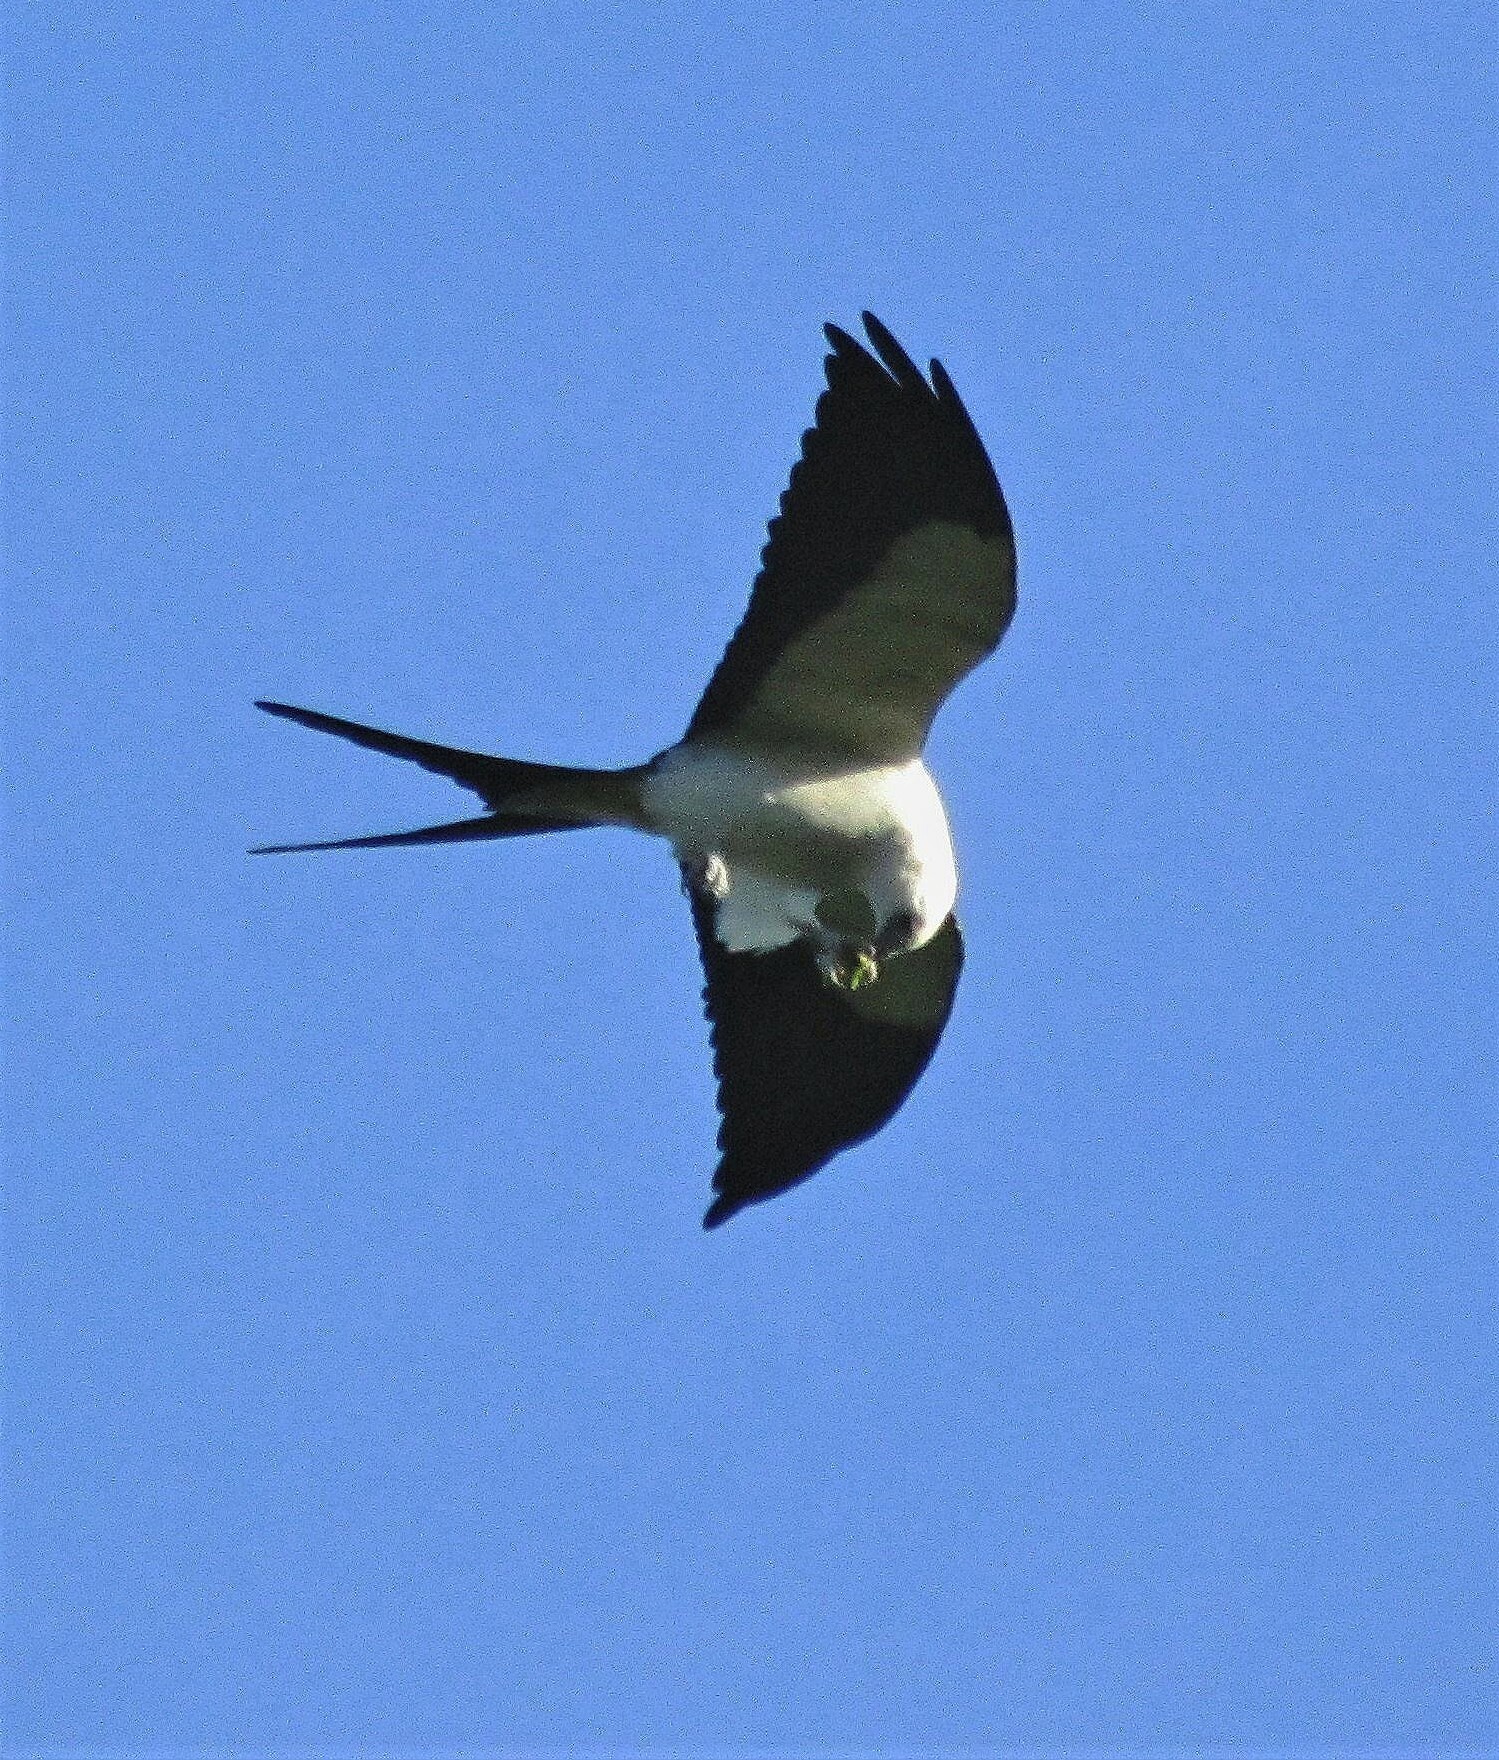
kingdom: Animalia
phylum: Chordata
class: Aves
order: Accipitriformes
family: Accipitridae
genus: Elanoides
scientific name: Elanoides forficatus
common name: Swallow-tailed kite
